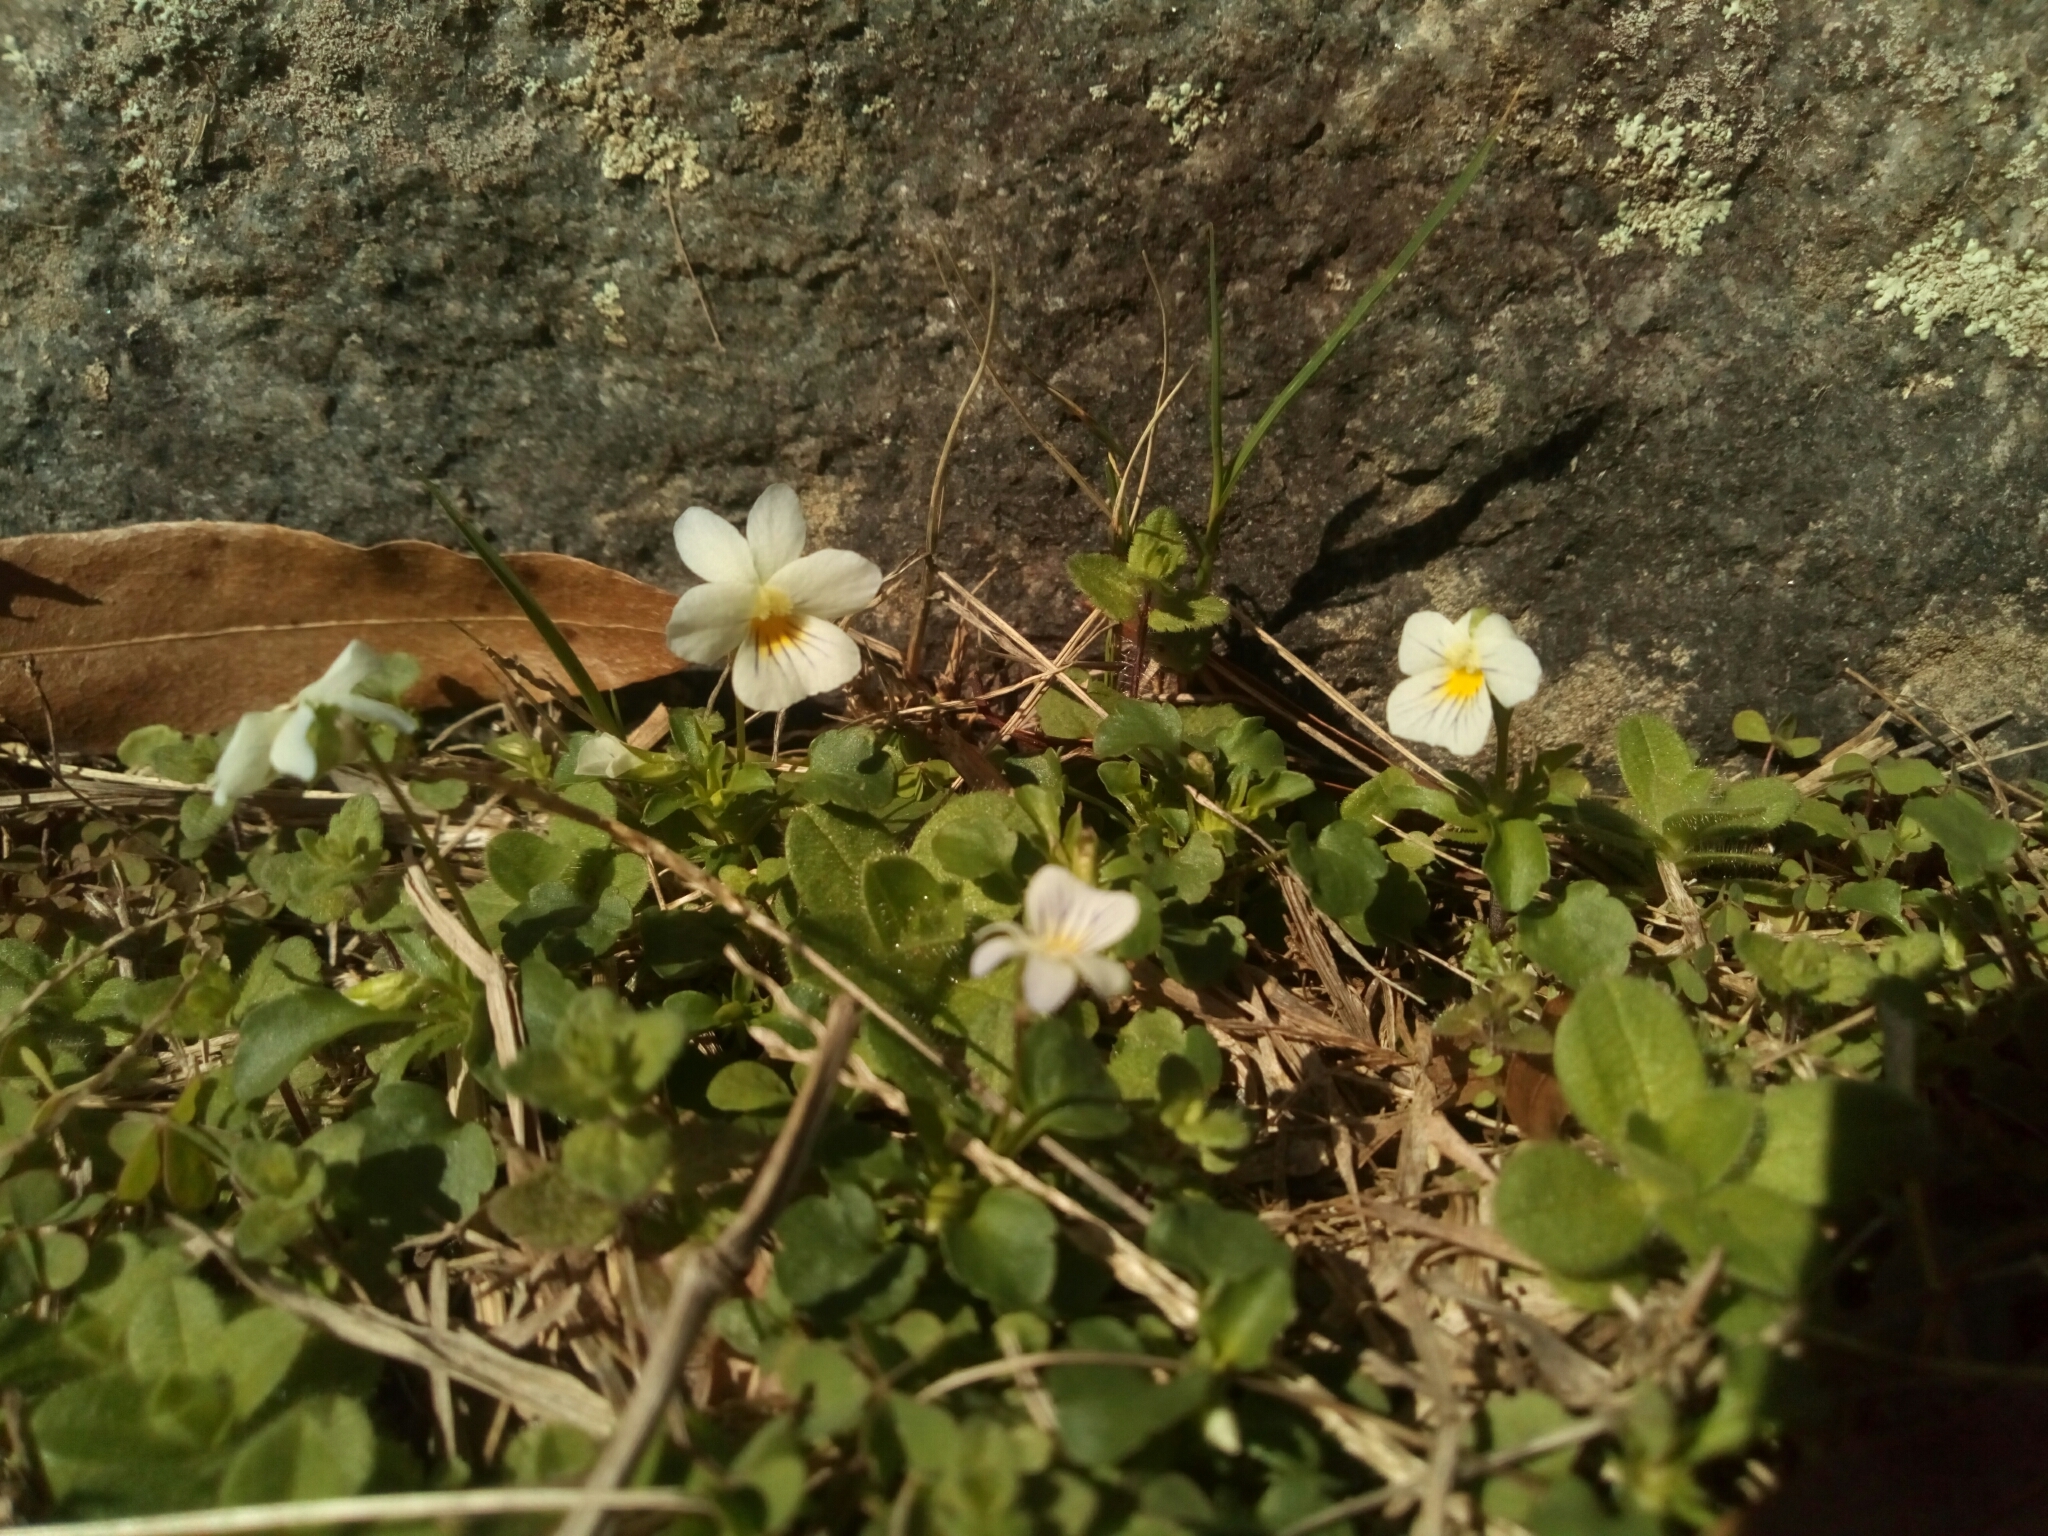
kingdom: Plantae
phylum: Tracheophyta
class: Magnoliopsida
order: Malpighiales
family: Violaceae
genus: Viola
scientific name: Viola rafinesquei
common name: American field pansy
